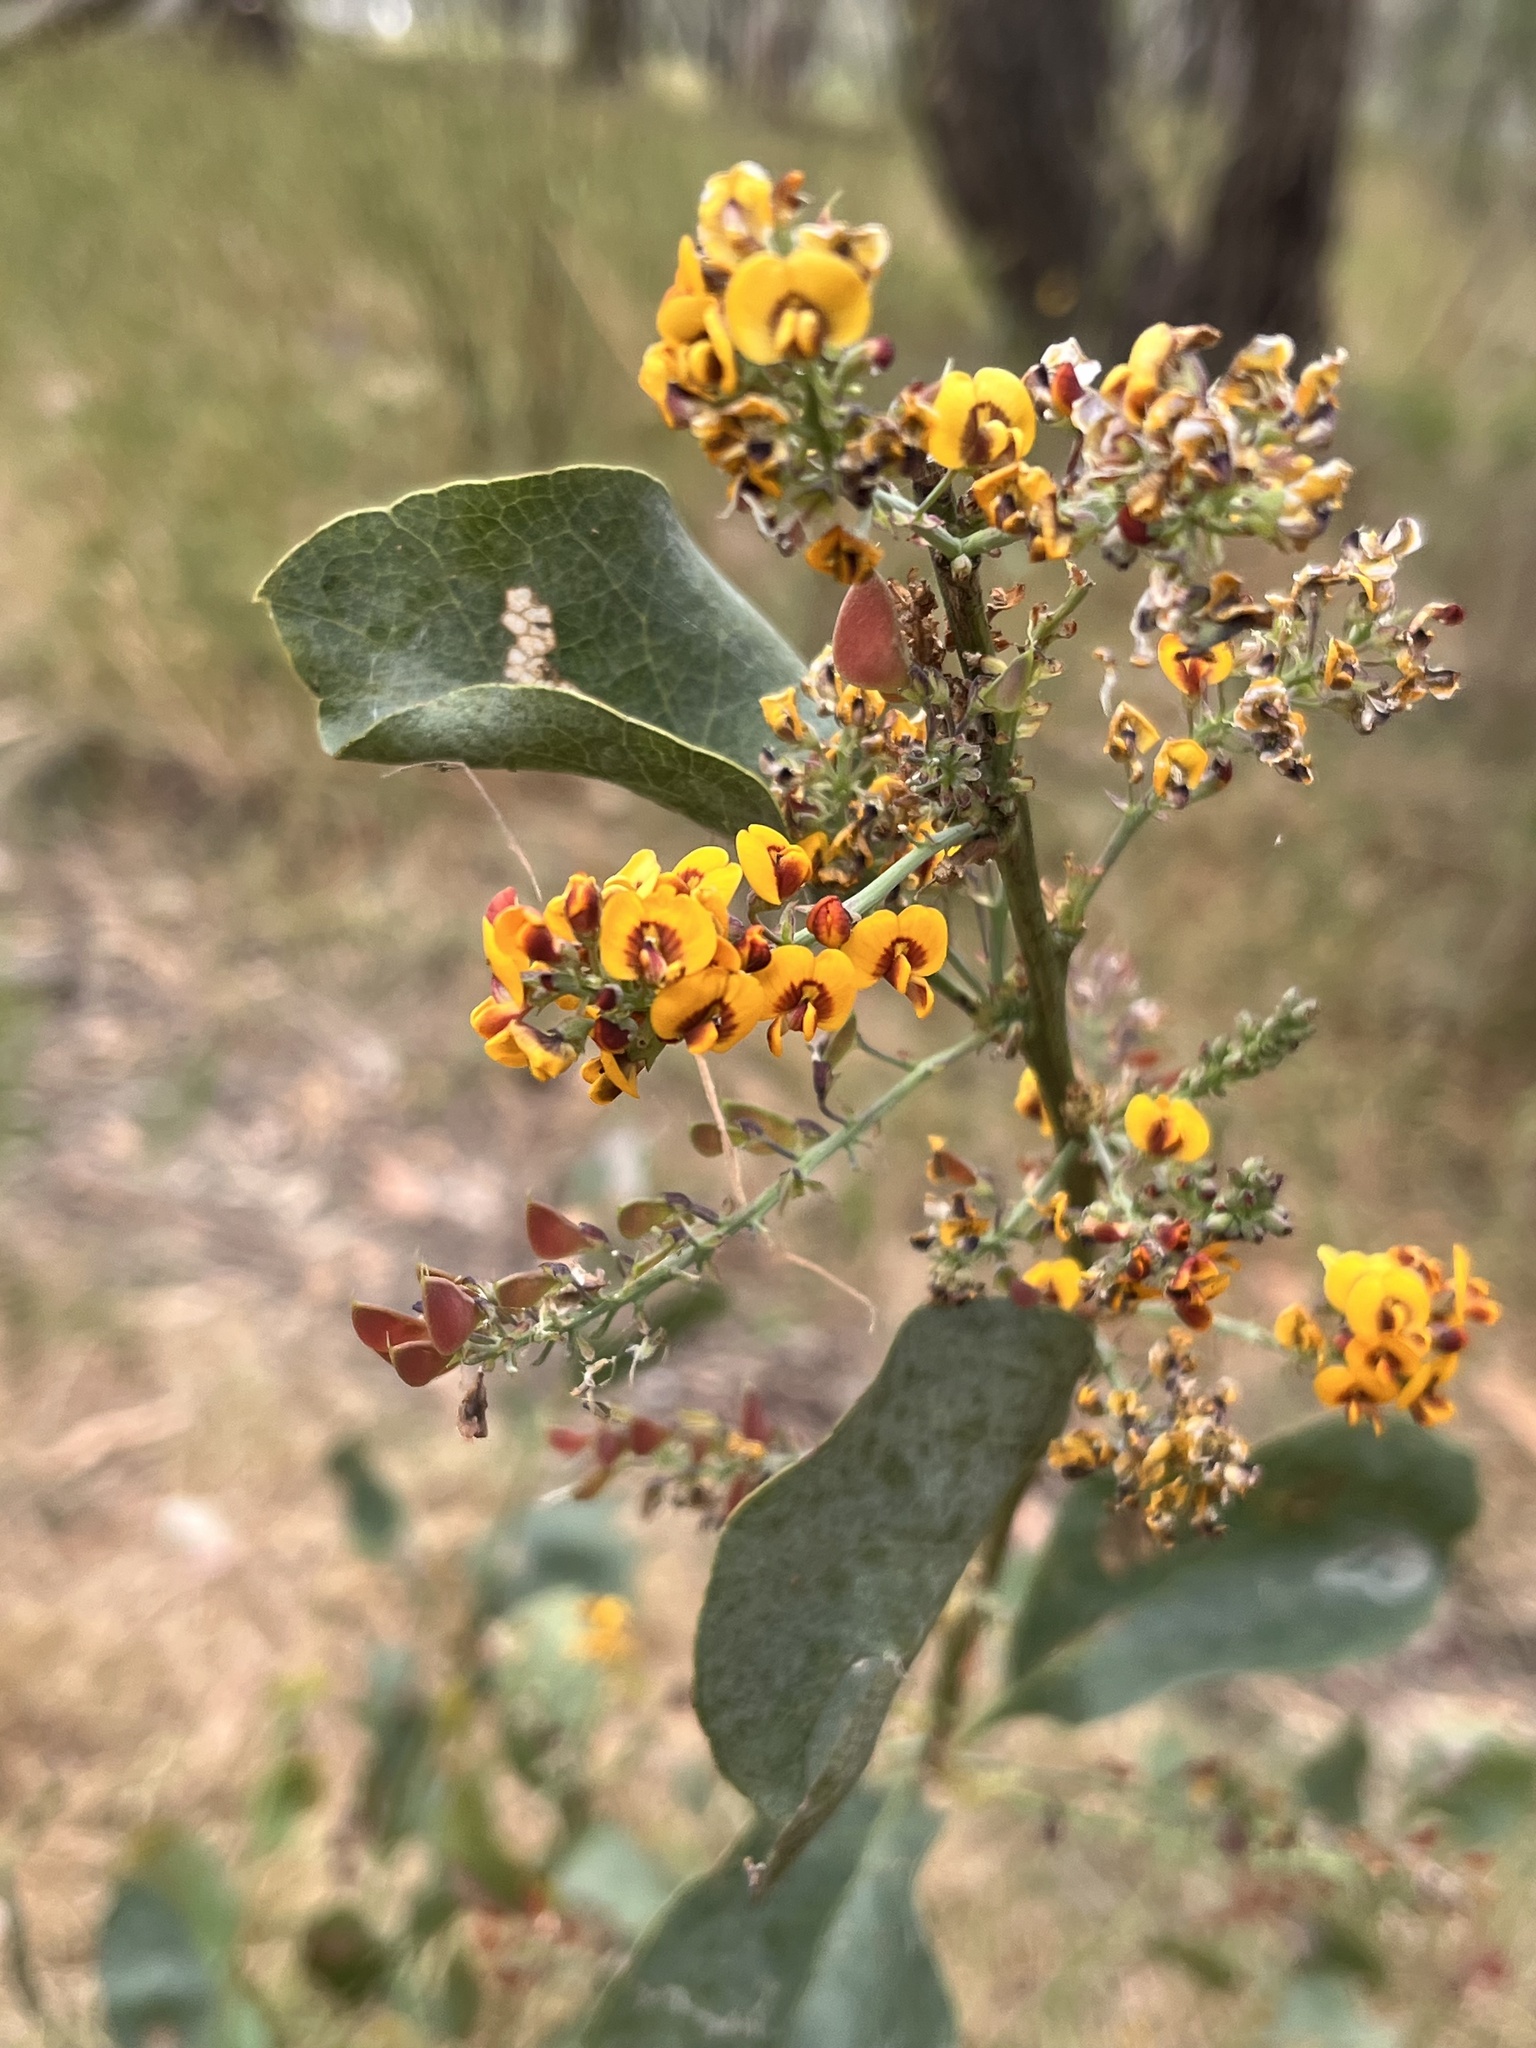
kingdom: Plantae
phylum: Tracheophyta
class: Magnoliopsida
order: Fabales
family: Fabaceae
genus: Daviesia
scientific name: Daviesia latifolia
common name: Hop bitter-pea
